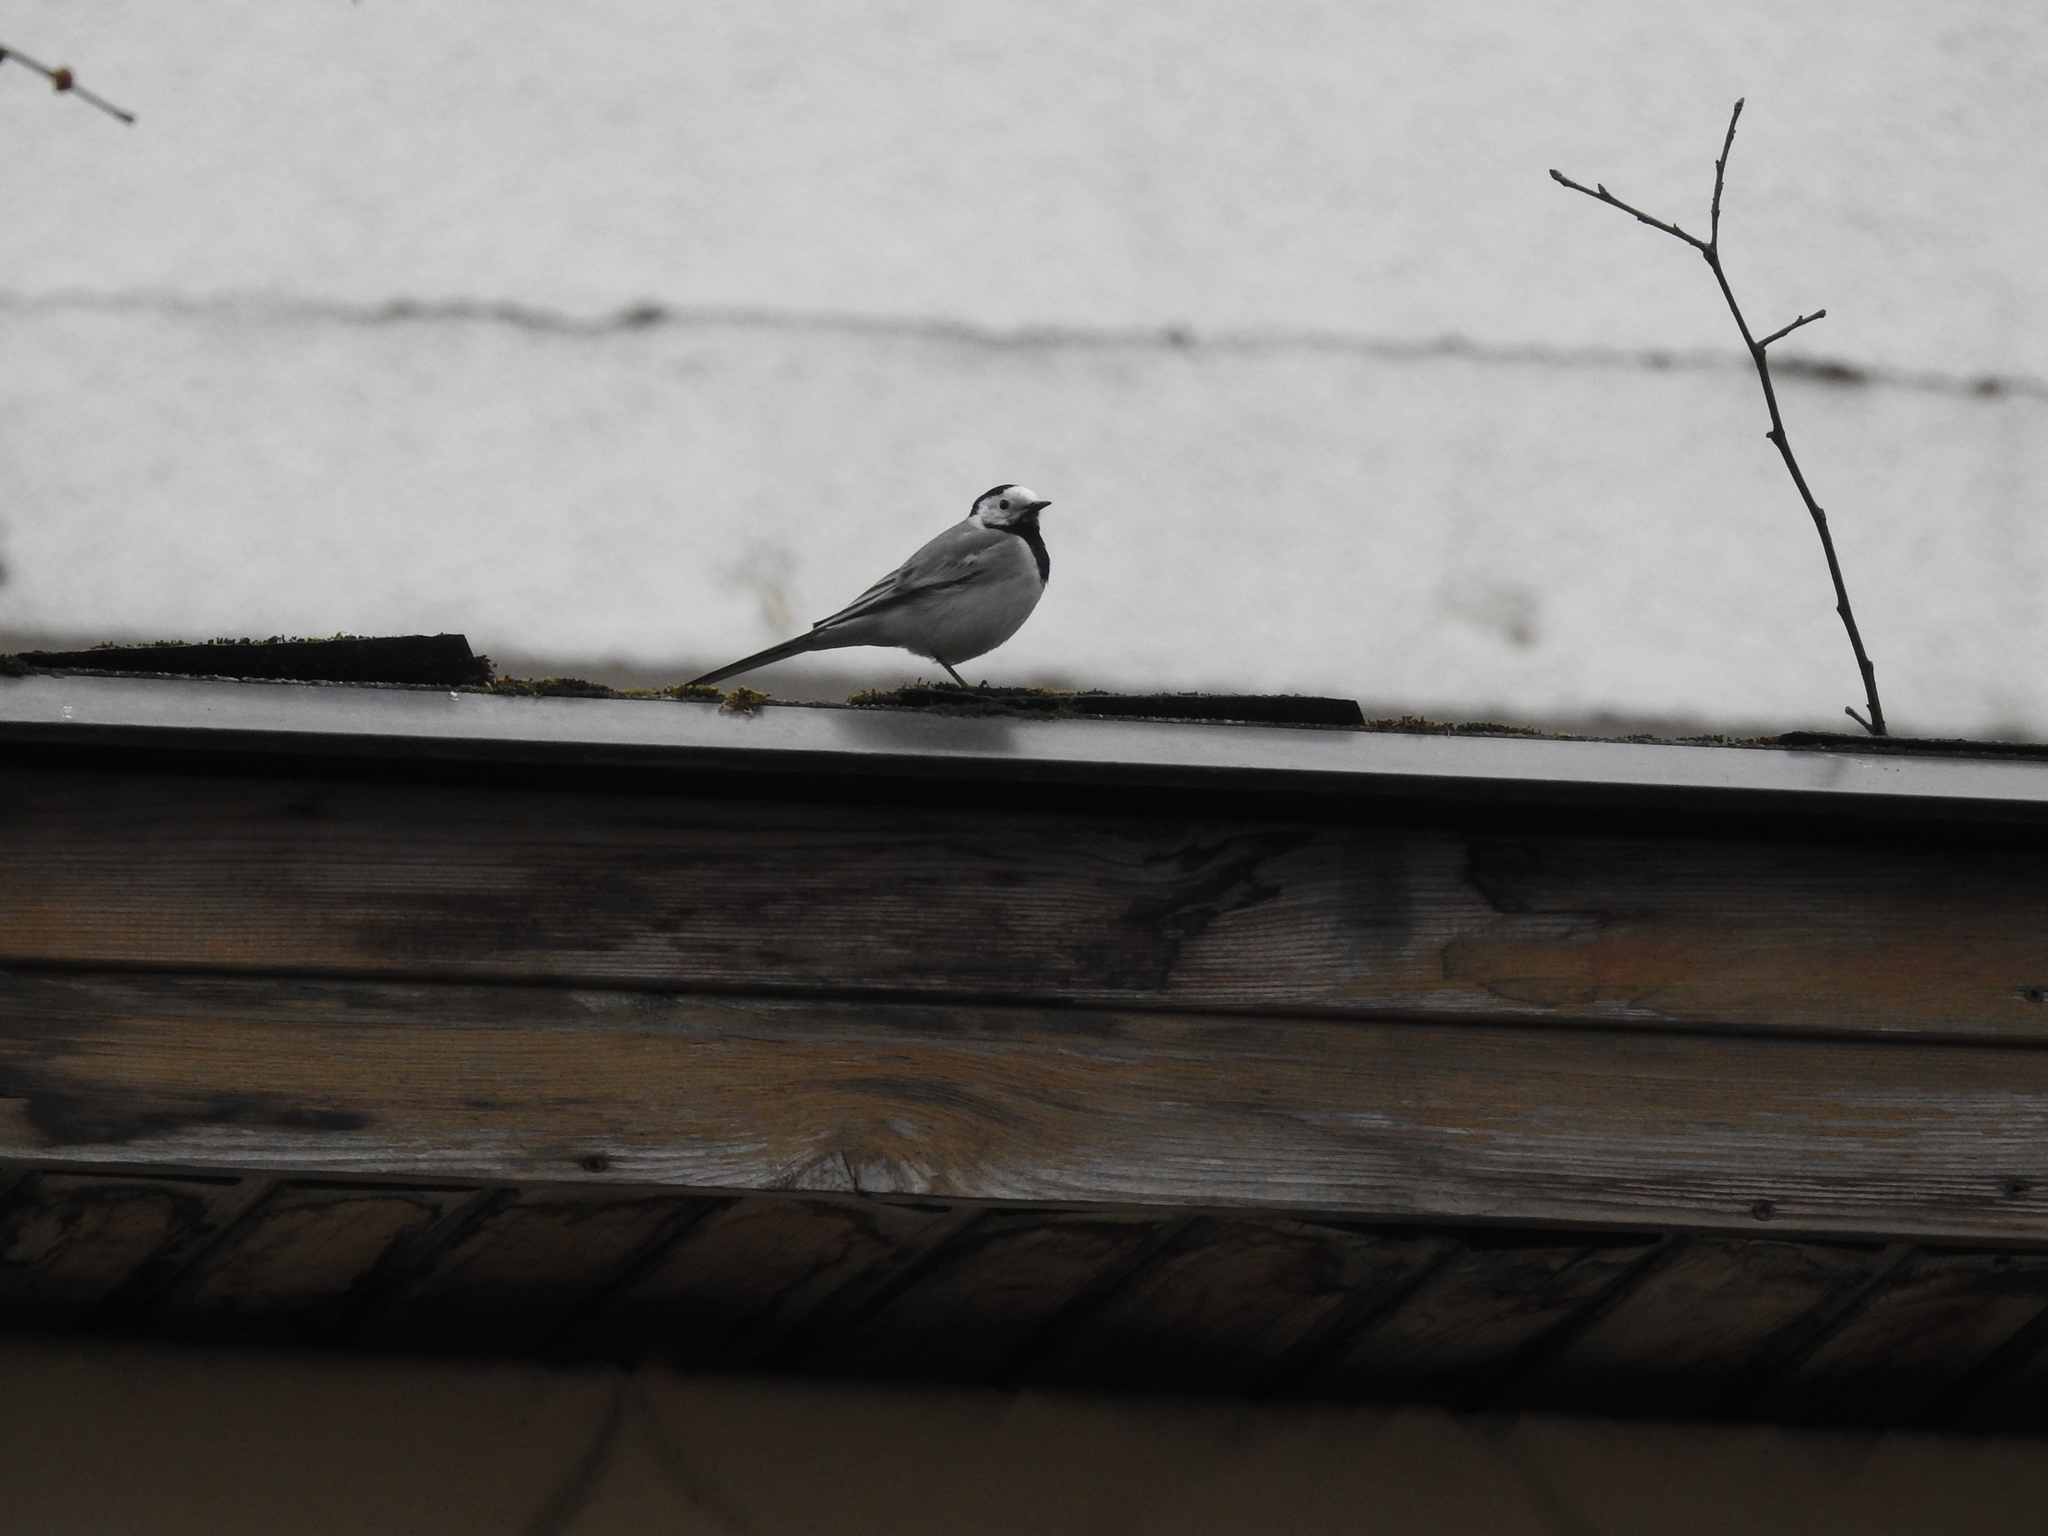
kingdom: Animalia
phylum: Chordata
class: Aves
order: Passeriformes
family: Motacillidae
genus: Motacilla
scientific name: Motacilla alba
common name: White wagtail
